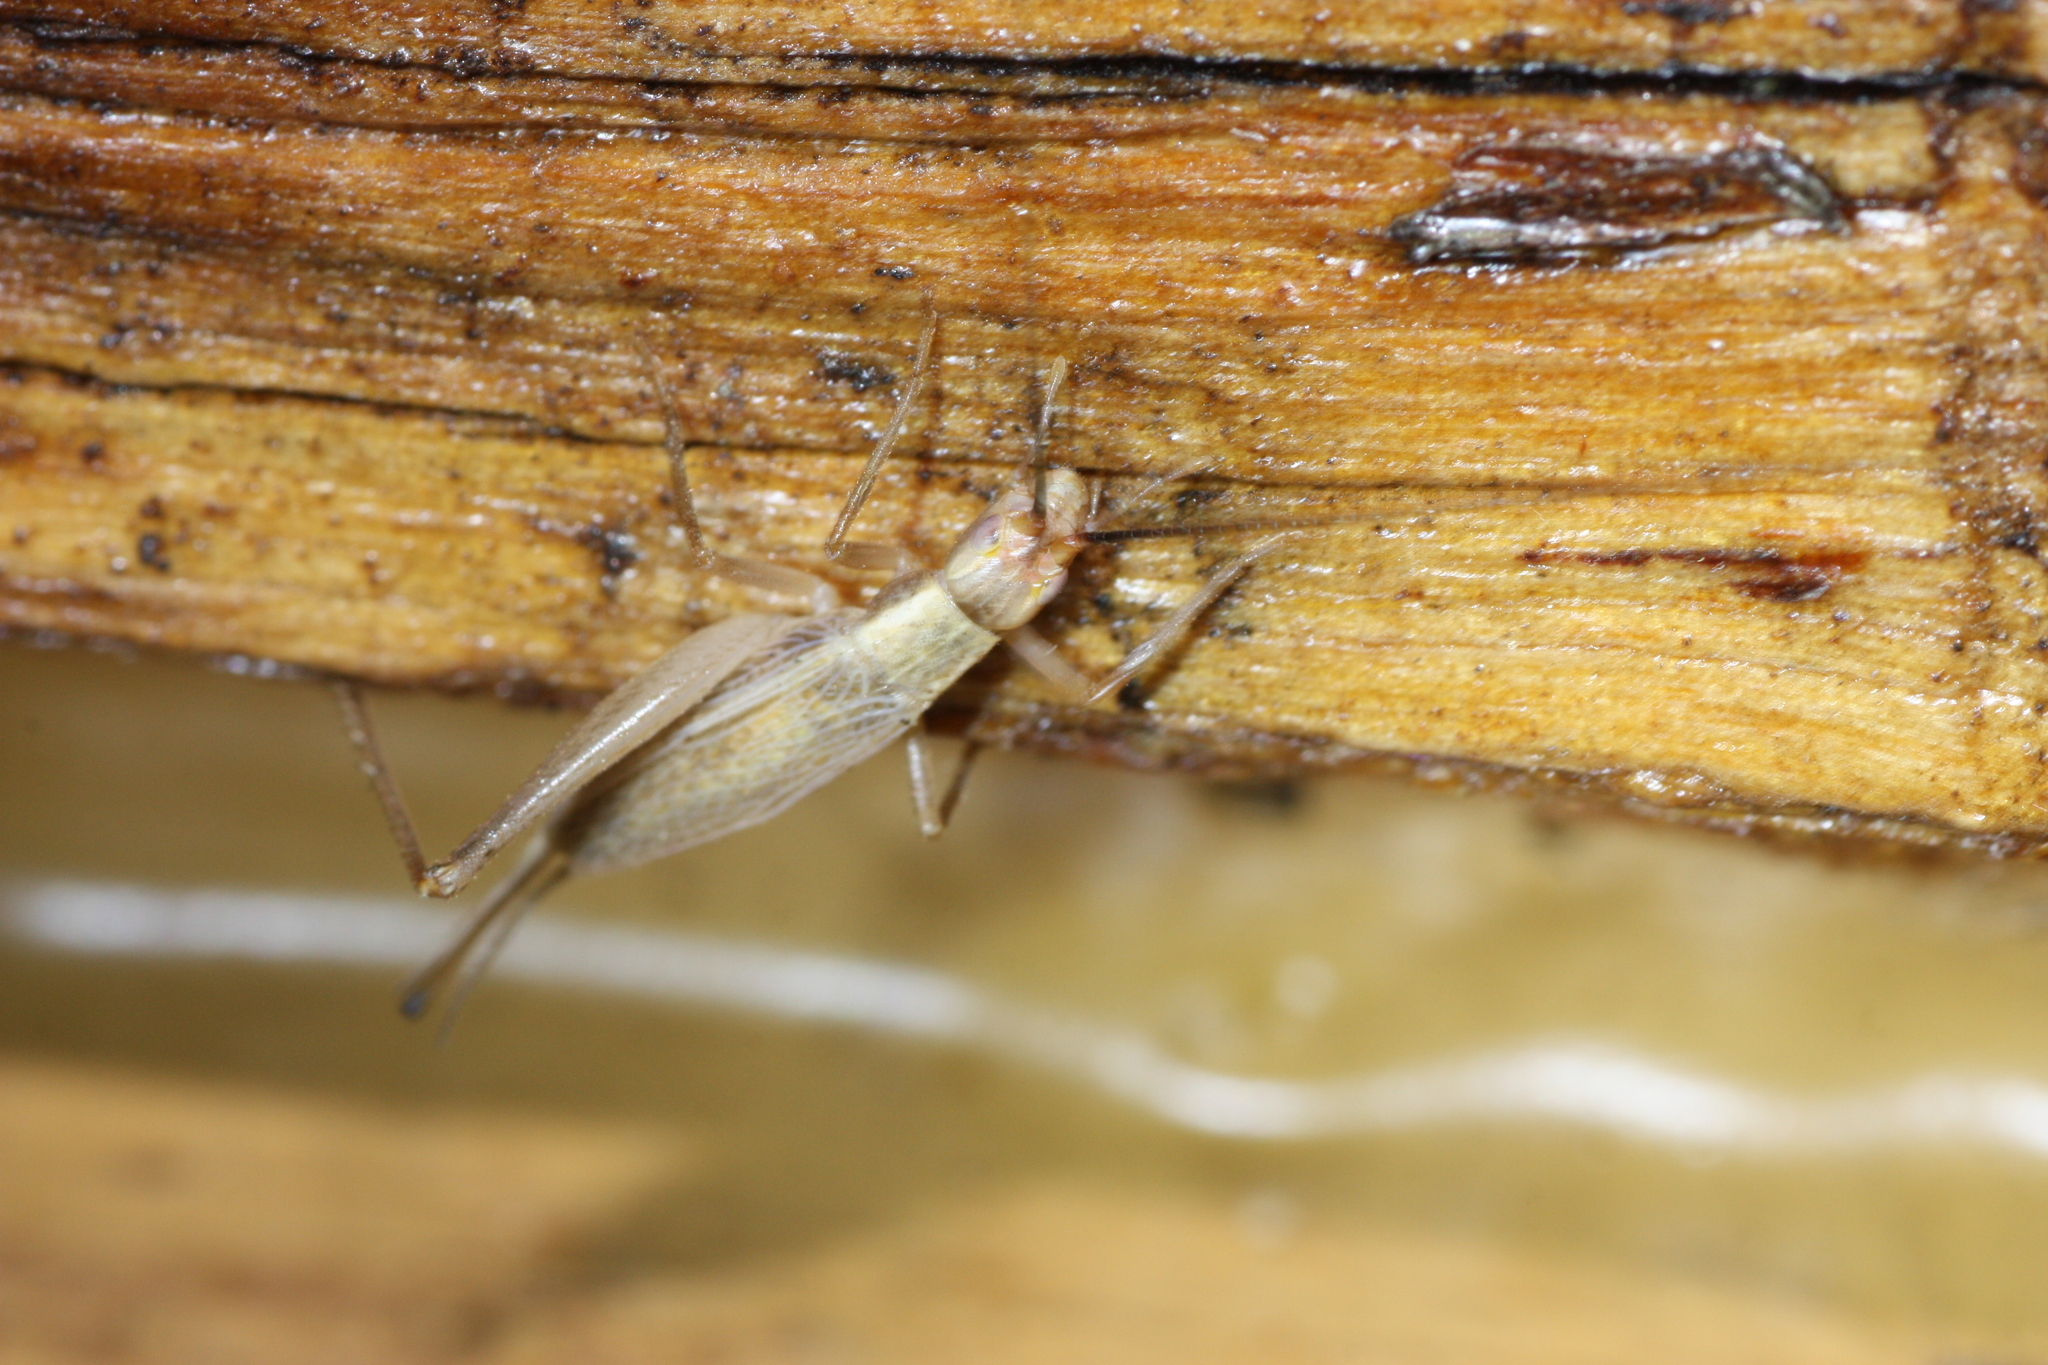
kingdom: Animalia
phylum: Arthropoda
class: Insecta
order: Orthoptera
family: Gryllidae
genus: Oecanthus
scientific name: Oecanthus
